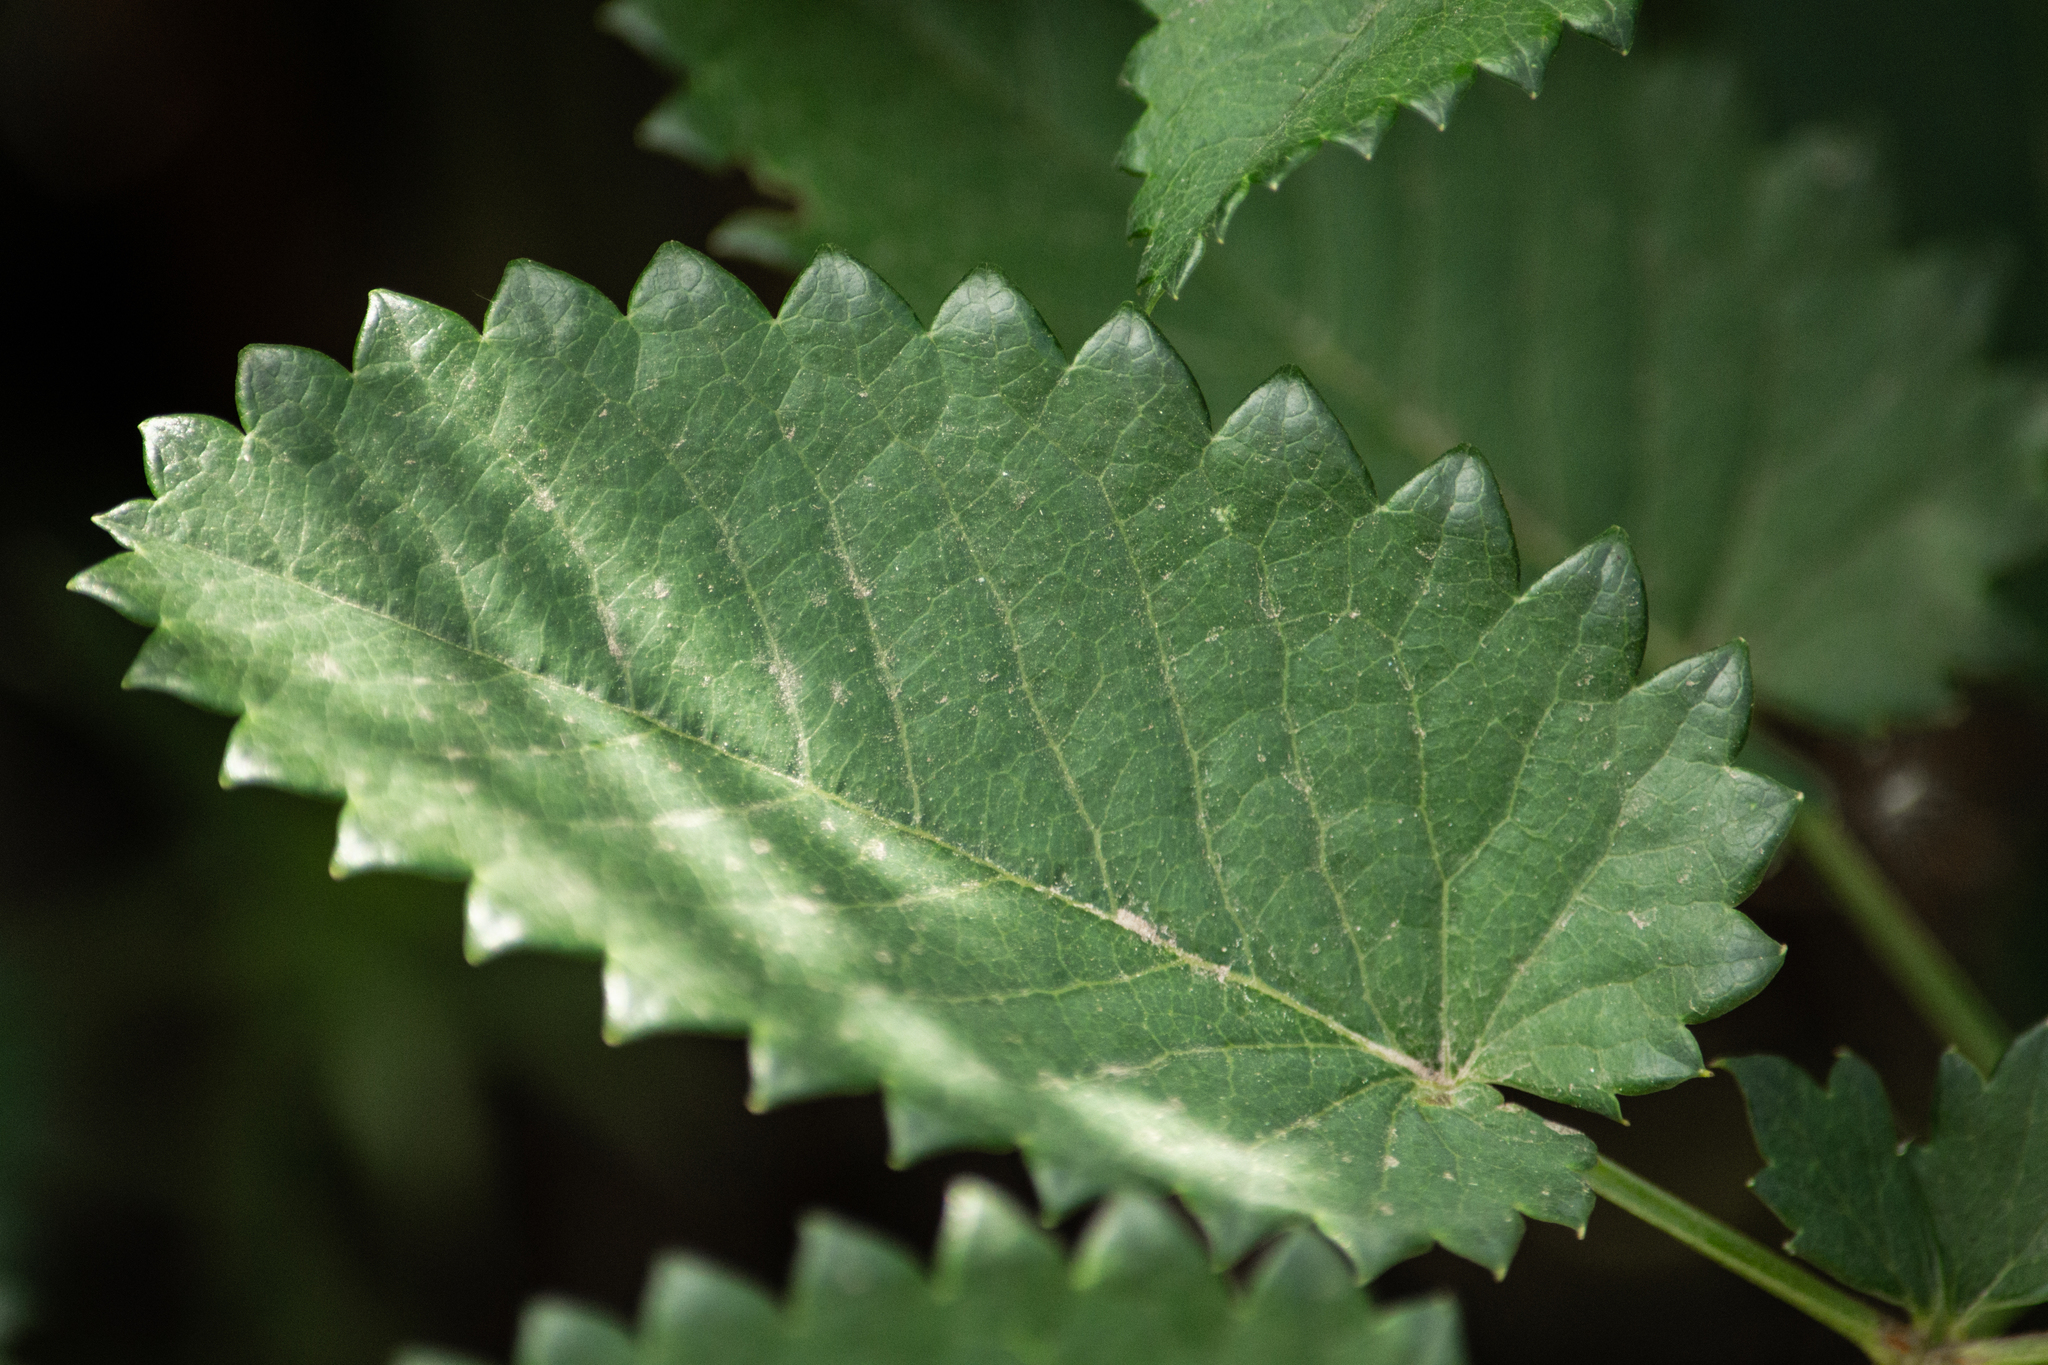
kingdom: Plantae
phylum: Tracheophyta
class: Magnoliopsida
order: Rosales
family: Rosaceae
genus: Sanguisorba
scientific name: Sanguisorba officinalis
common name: Great burnet
